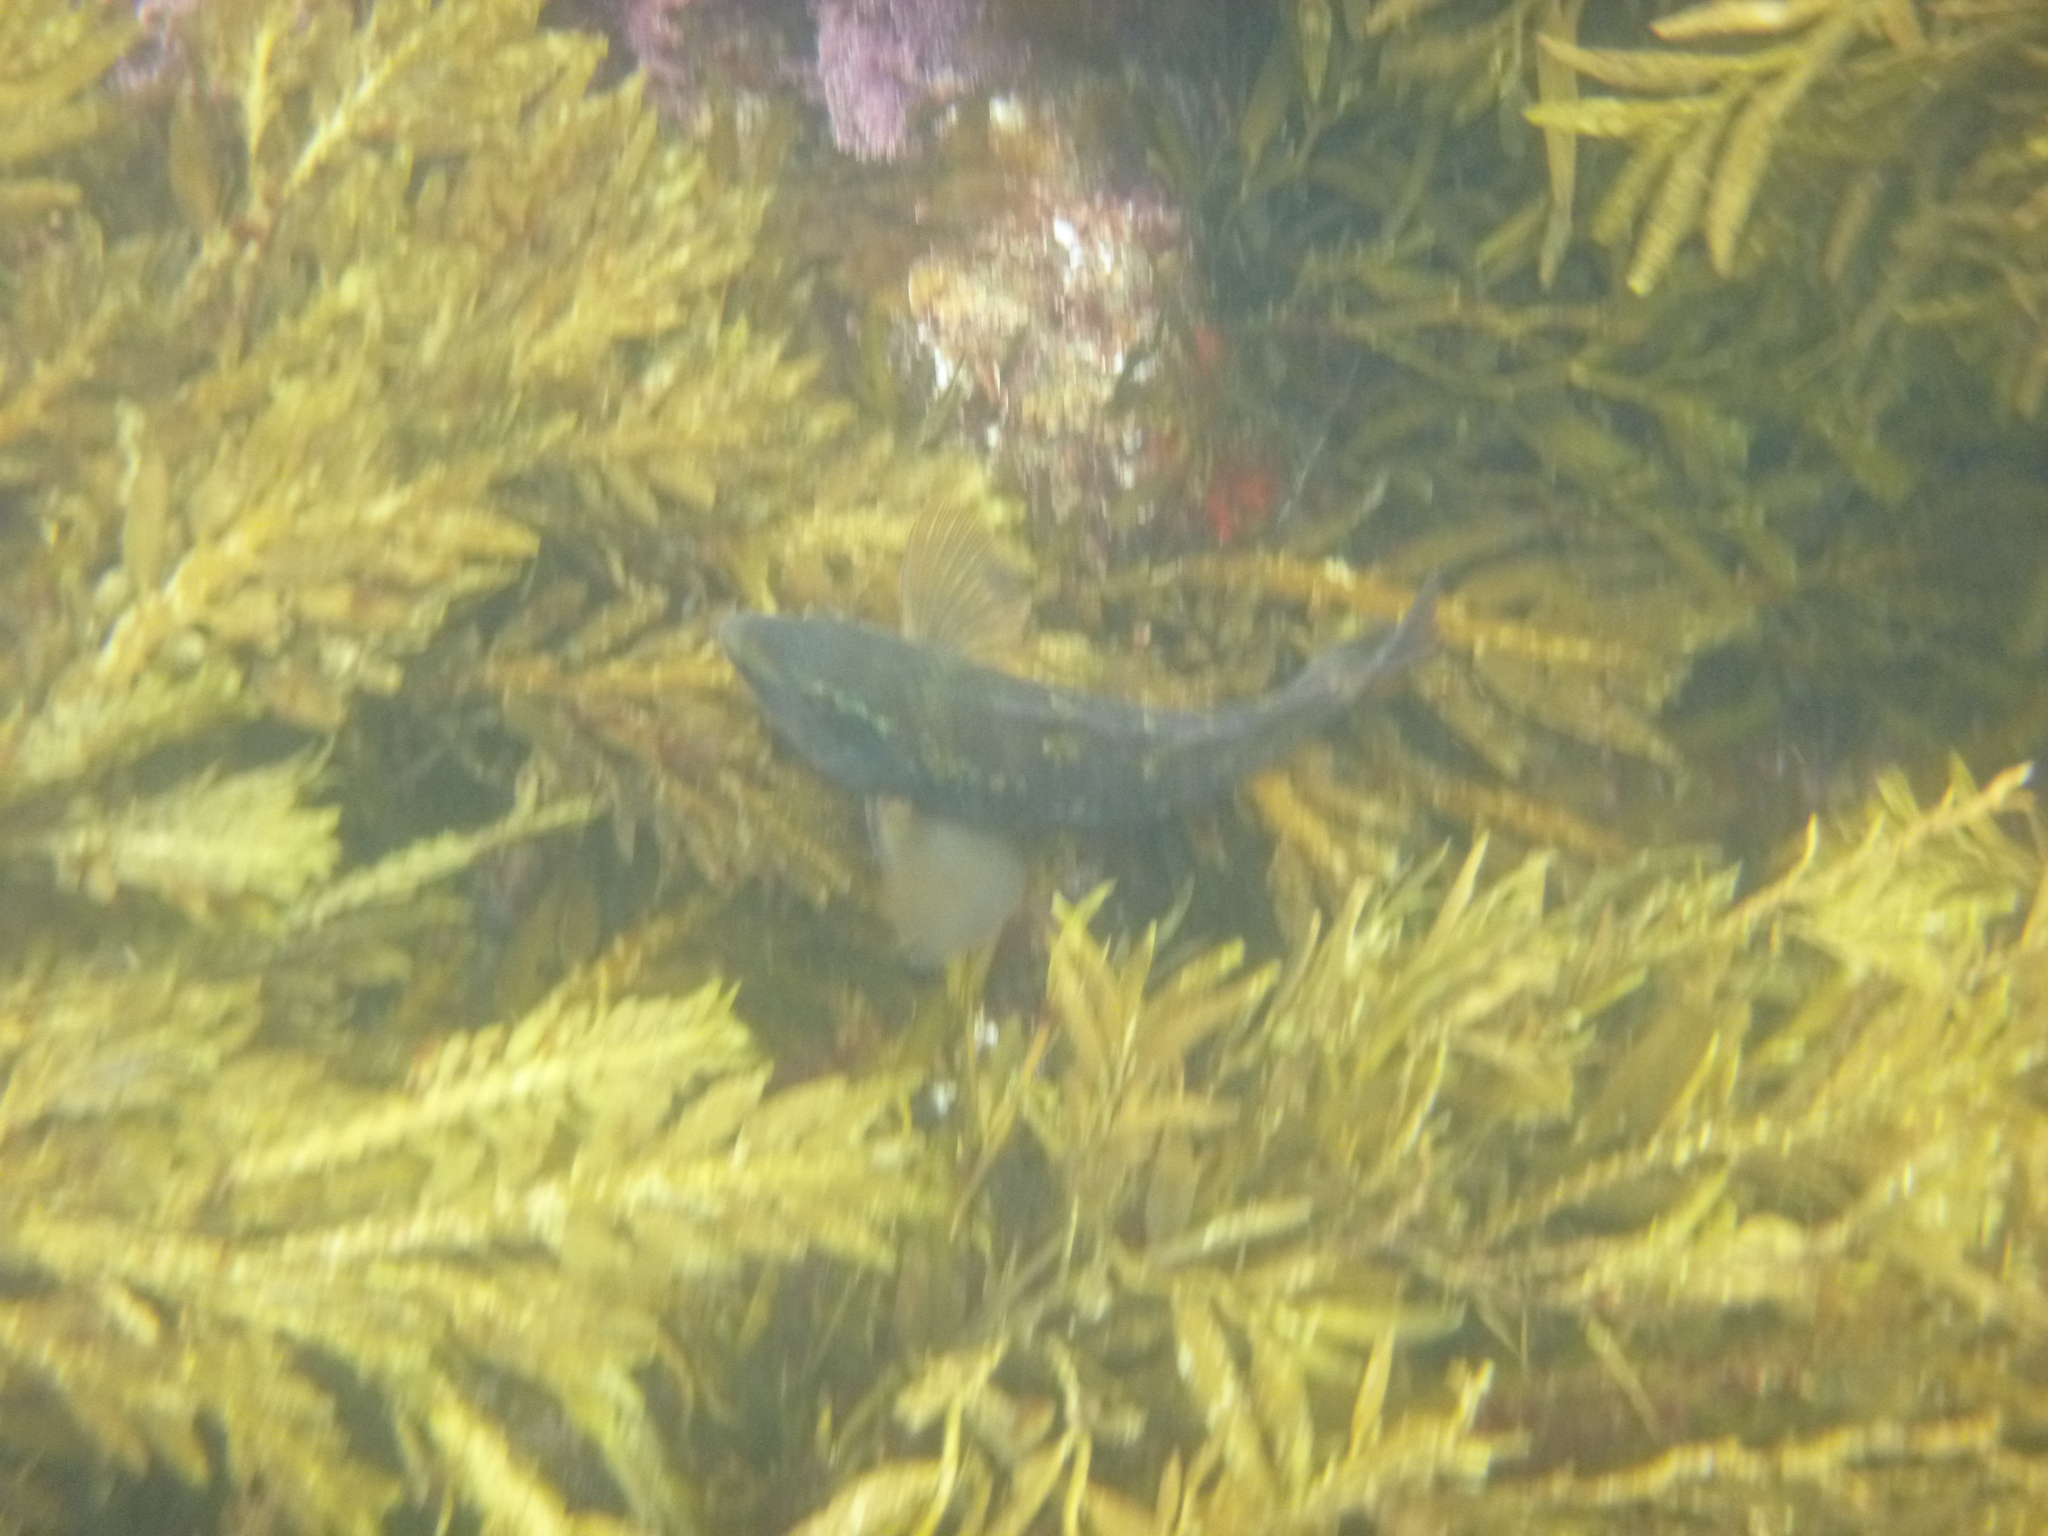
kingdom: Animalia
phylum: Chordata
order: Perciformes
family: Labridae
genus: Notolabrus
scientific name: Notolabrus fucicola
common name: Banded parrotfish
